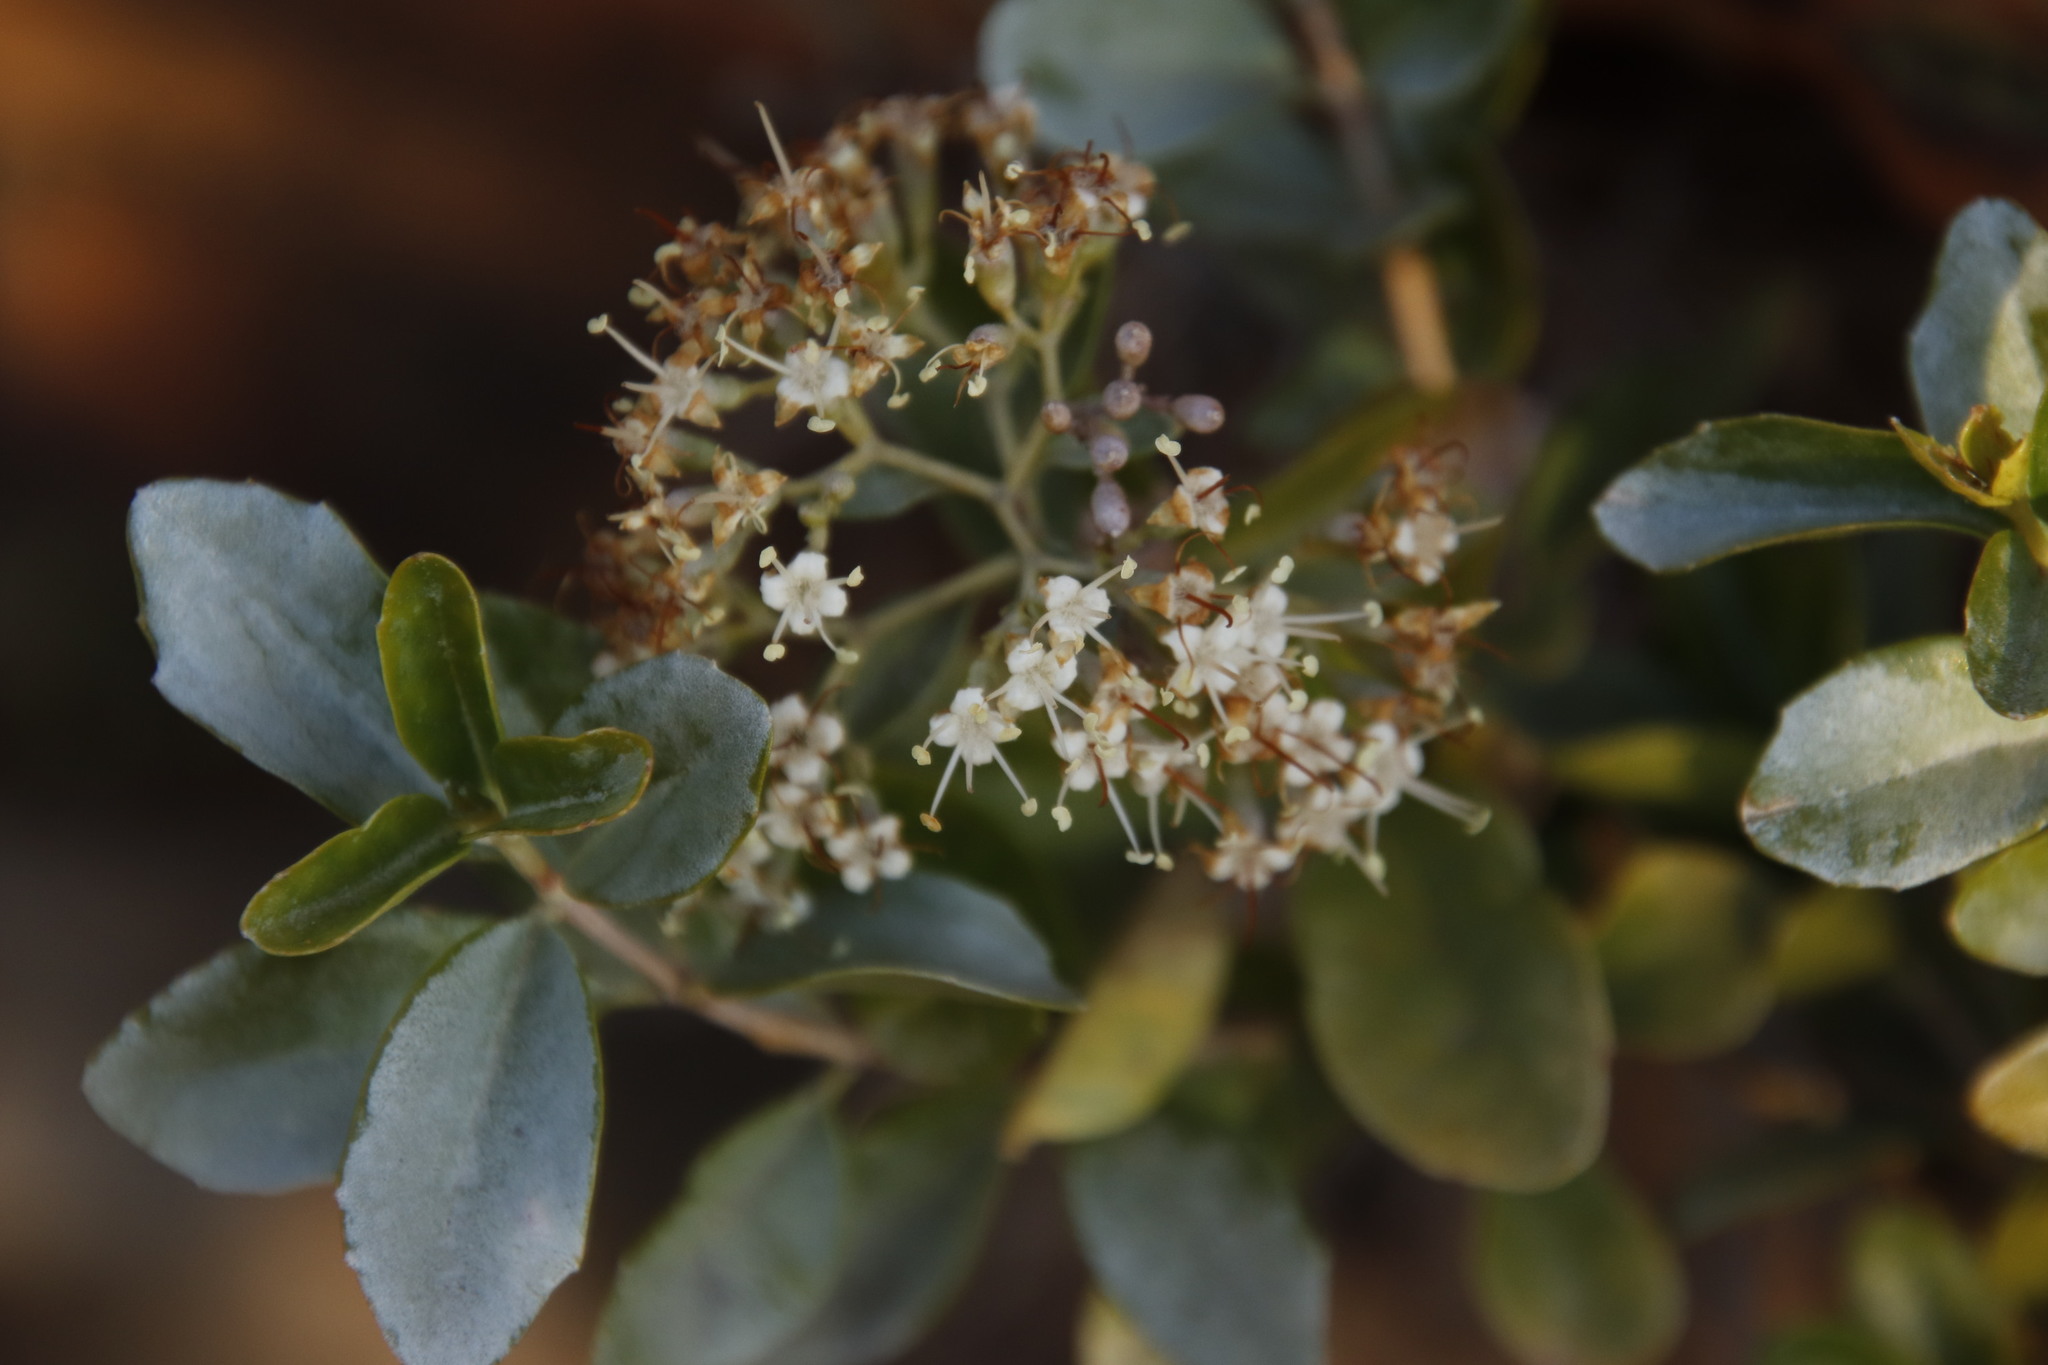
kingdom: Plantae
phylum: Tracheophyta
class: Magnoliopsida
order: Lamiales
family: Stilbaceae
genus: Nuxia
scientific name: Nuxia congesta
